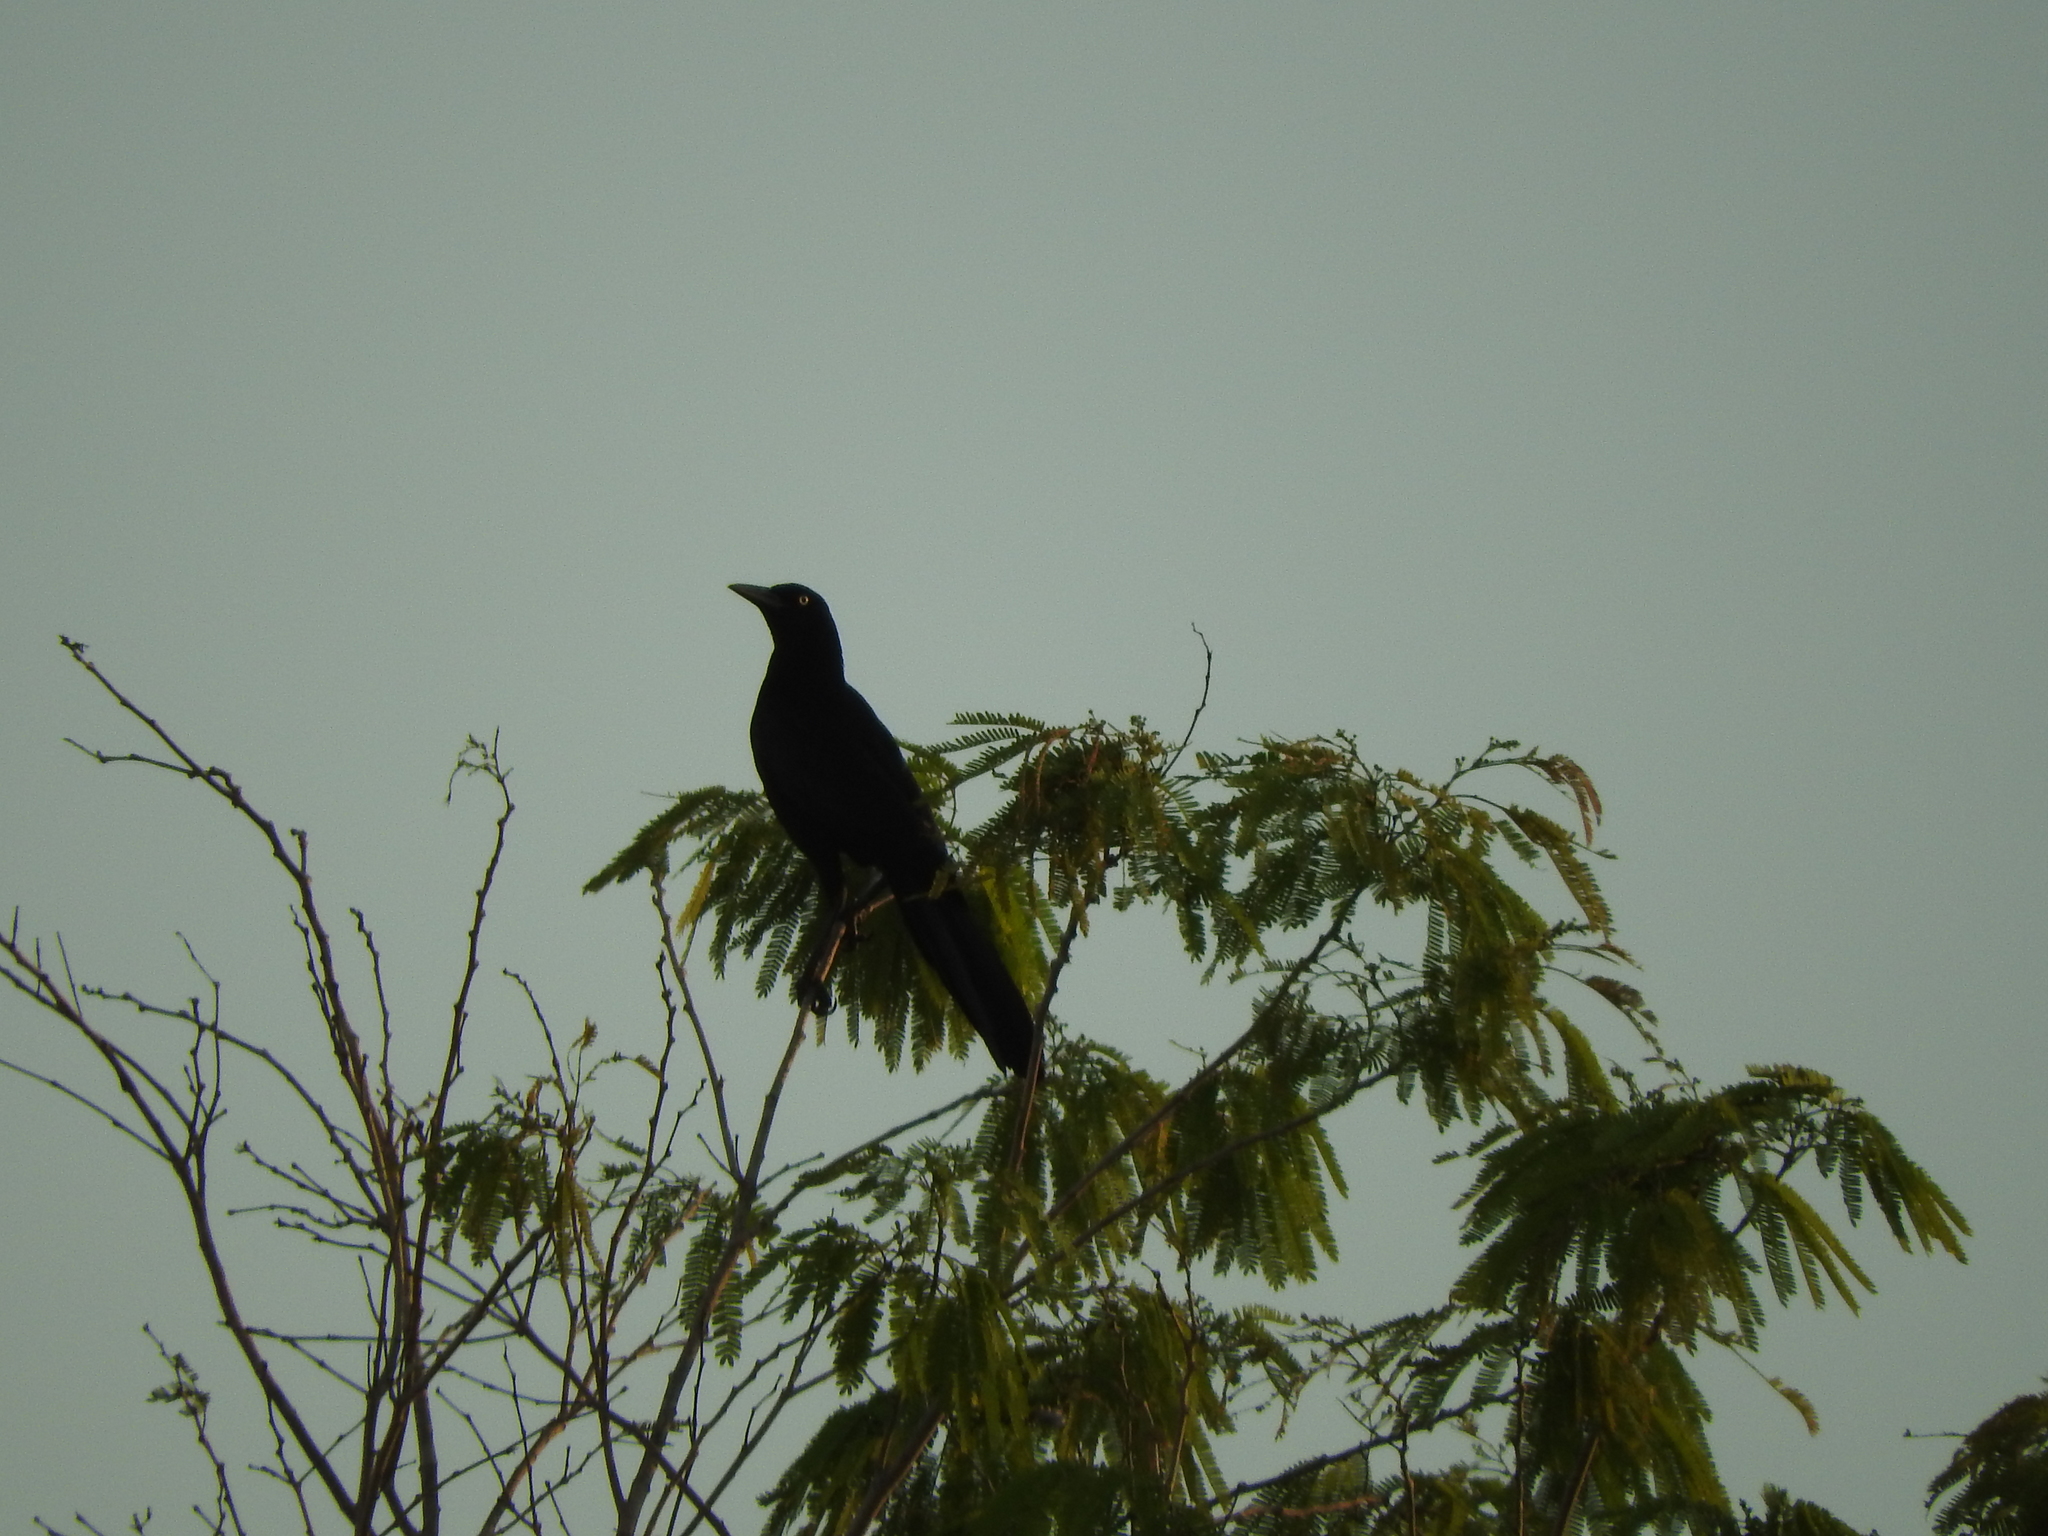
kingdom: Animalia
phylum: Chordata
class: Aves
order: Passeriformes
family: Icteridae
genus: Quiscalus
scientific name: Quiscalus mexicanus
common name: Great-tailed grackle
